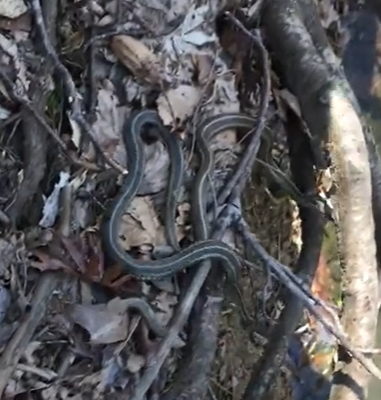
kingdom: Animalia
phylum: Chordata
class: Squamata
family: Colubridae
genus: Thamnophis
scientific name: Thamnophis sirtalis
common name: Common garter snake
